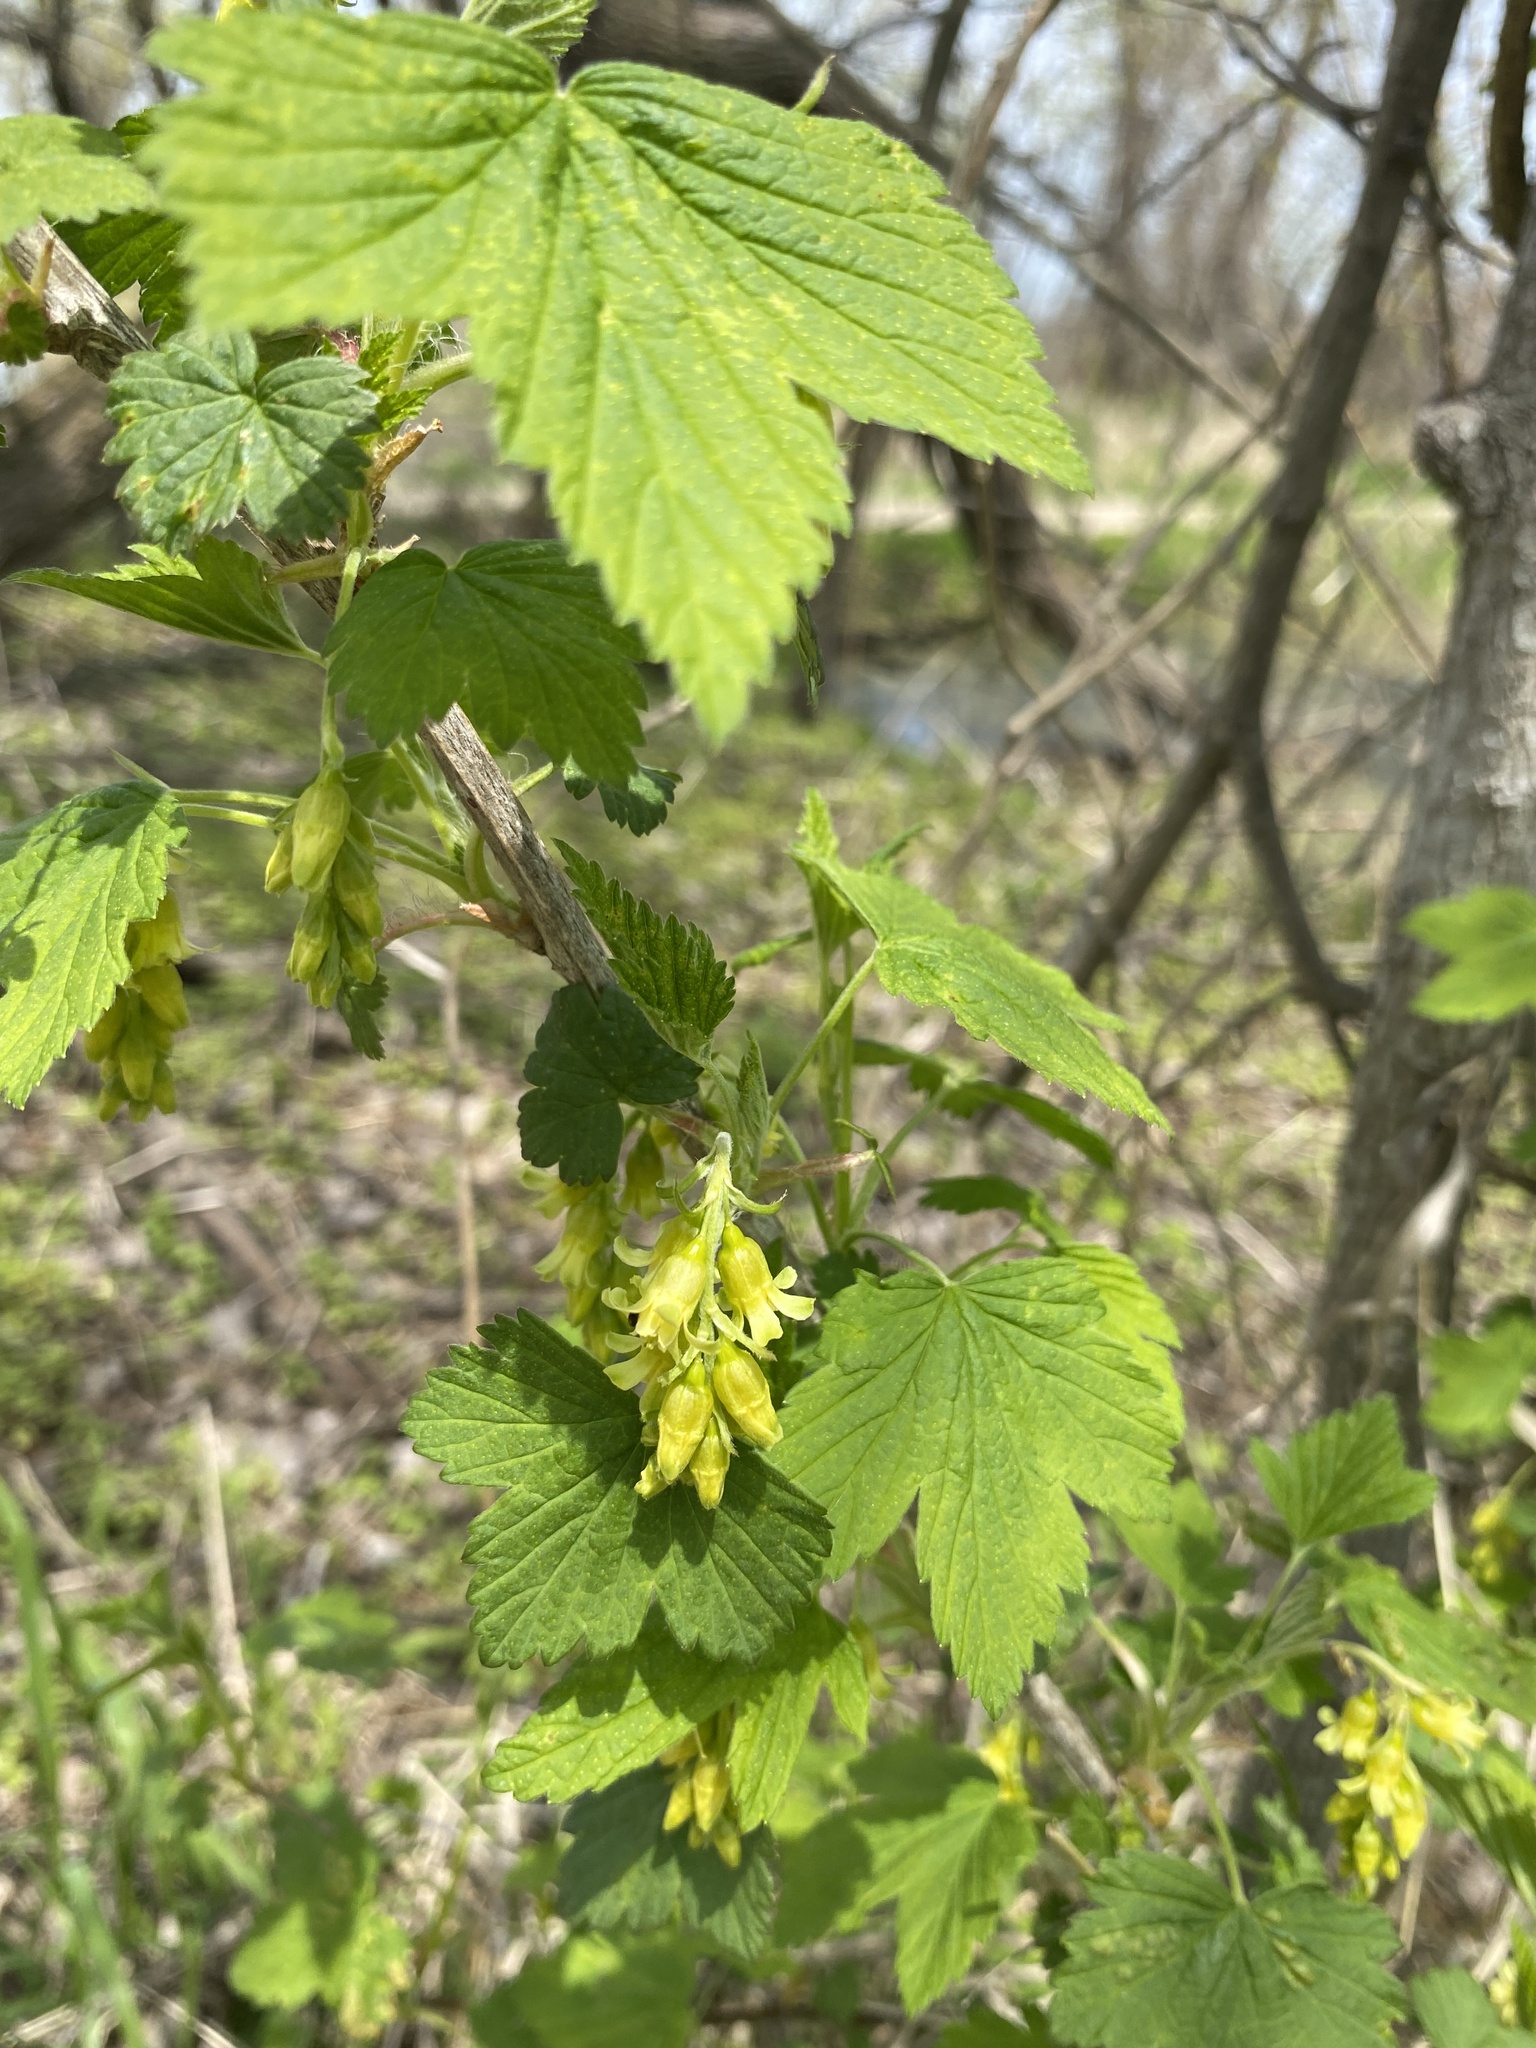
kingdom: Plantae
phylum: Tracheophyta
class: Magnoliopsida
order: Saxifragales
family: Grossulariaceae
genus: Ribes
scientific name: Ribes americanum
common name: American black currant
